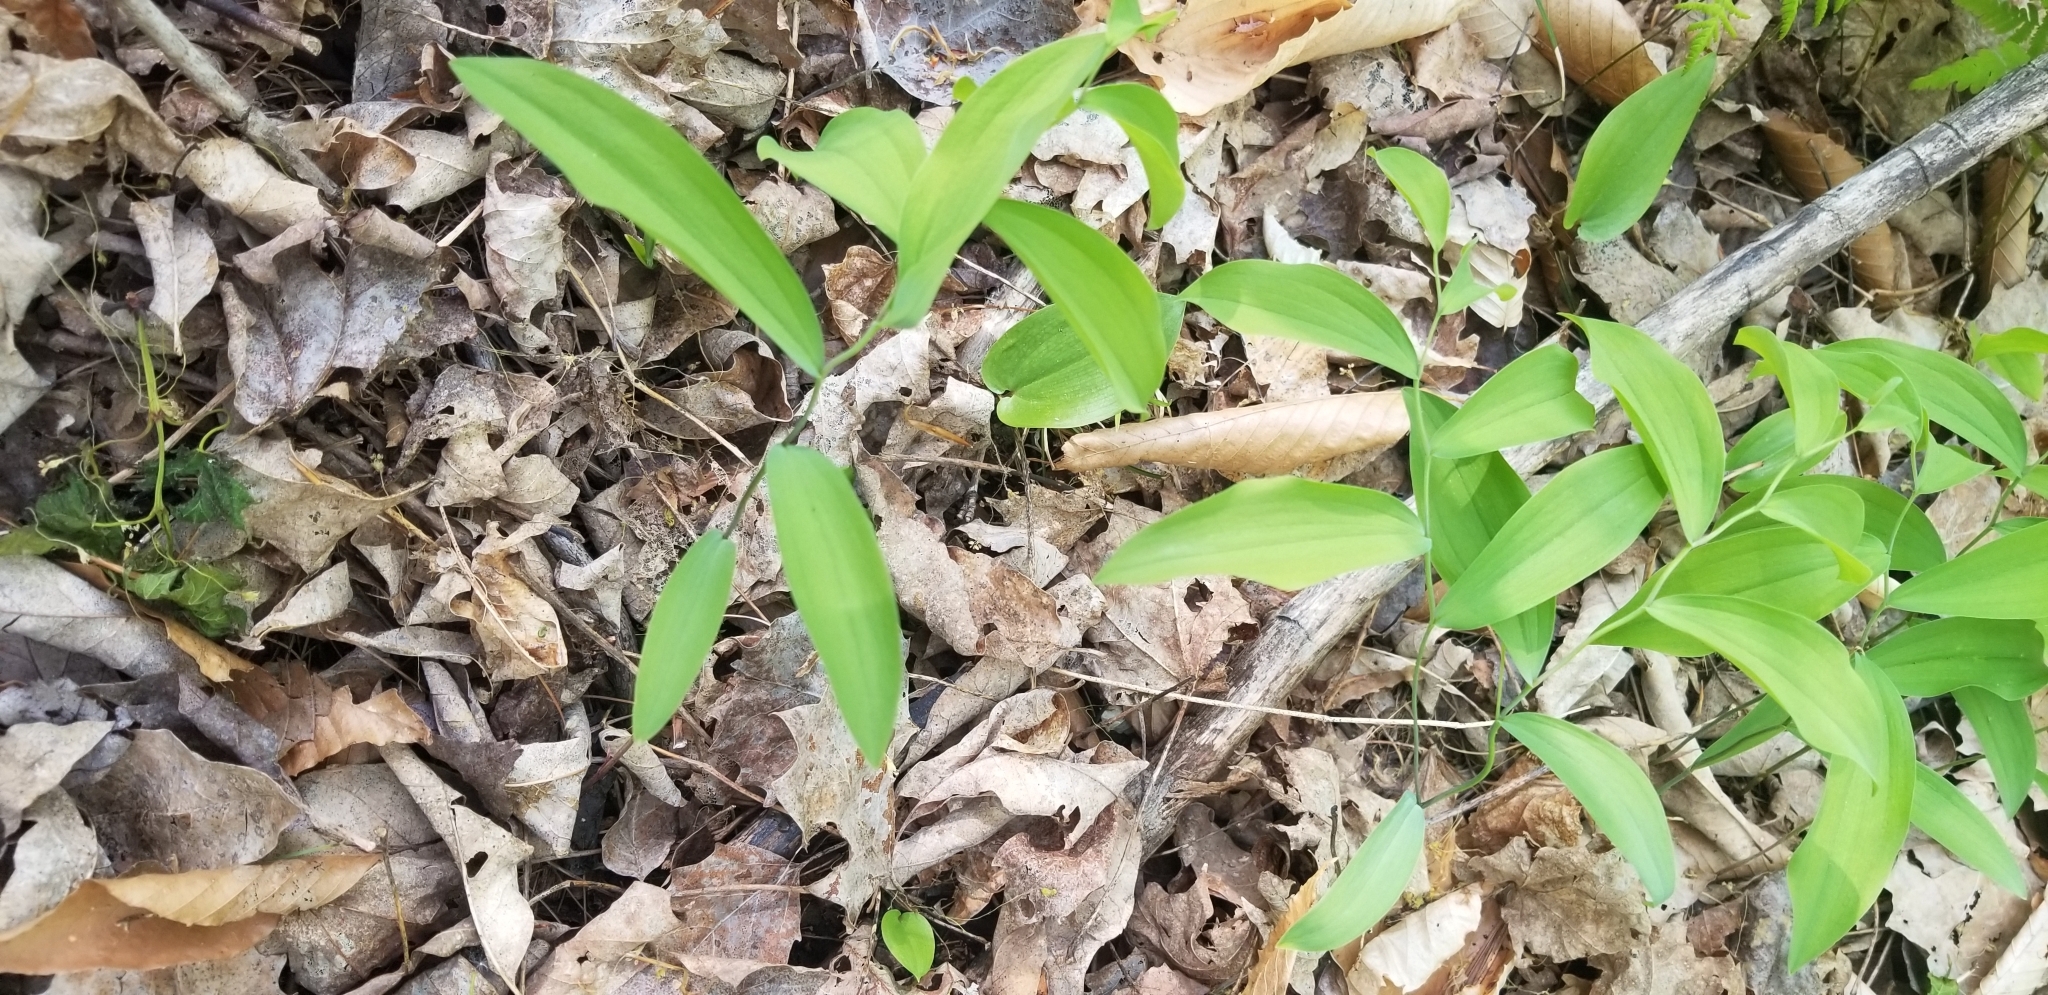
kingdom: Plantae
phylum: Tracheophyta
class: Liliopsida
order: Liliales
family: Colchicaceae
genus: Uvularia
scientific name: Uvularia sessilifolia
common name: Straw-lily
